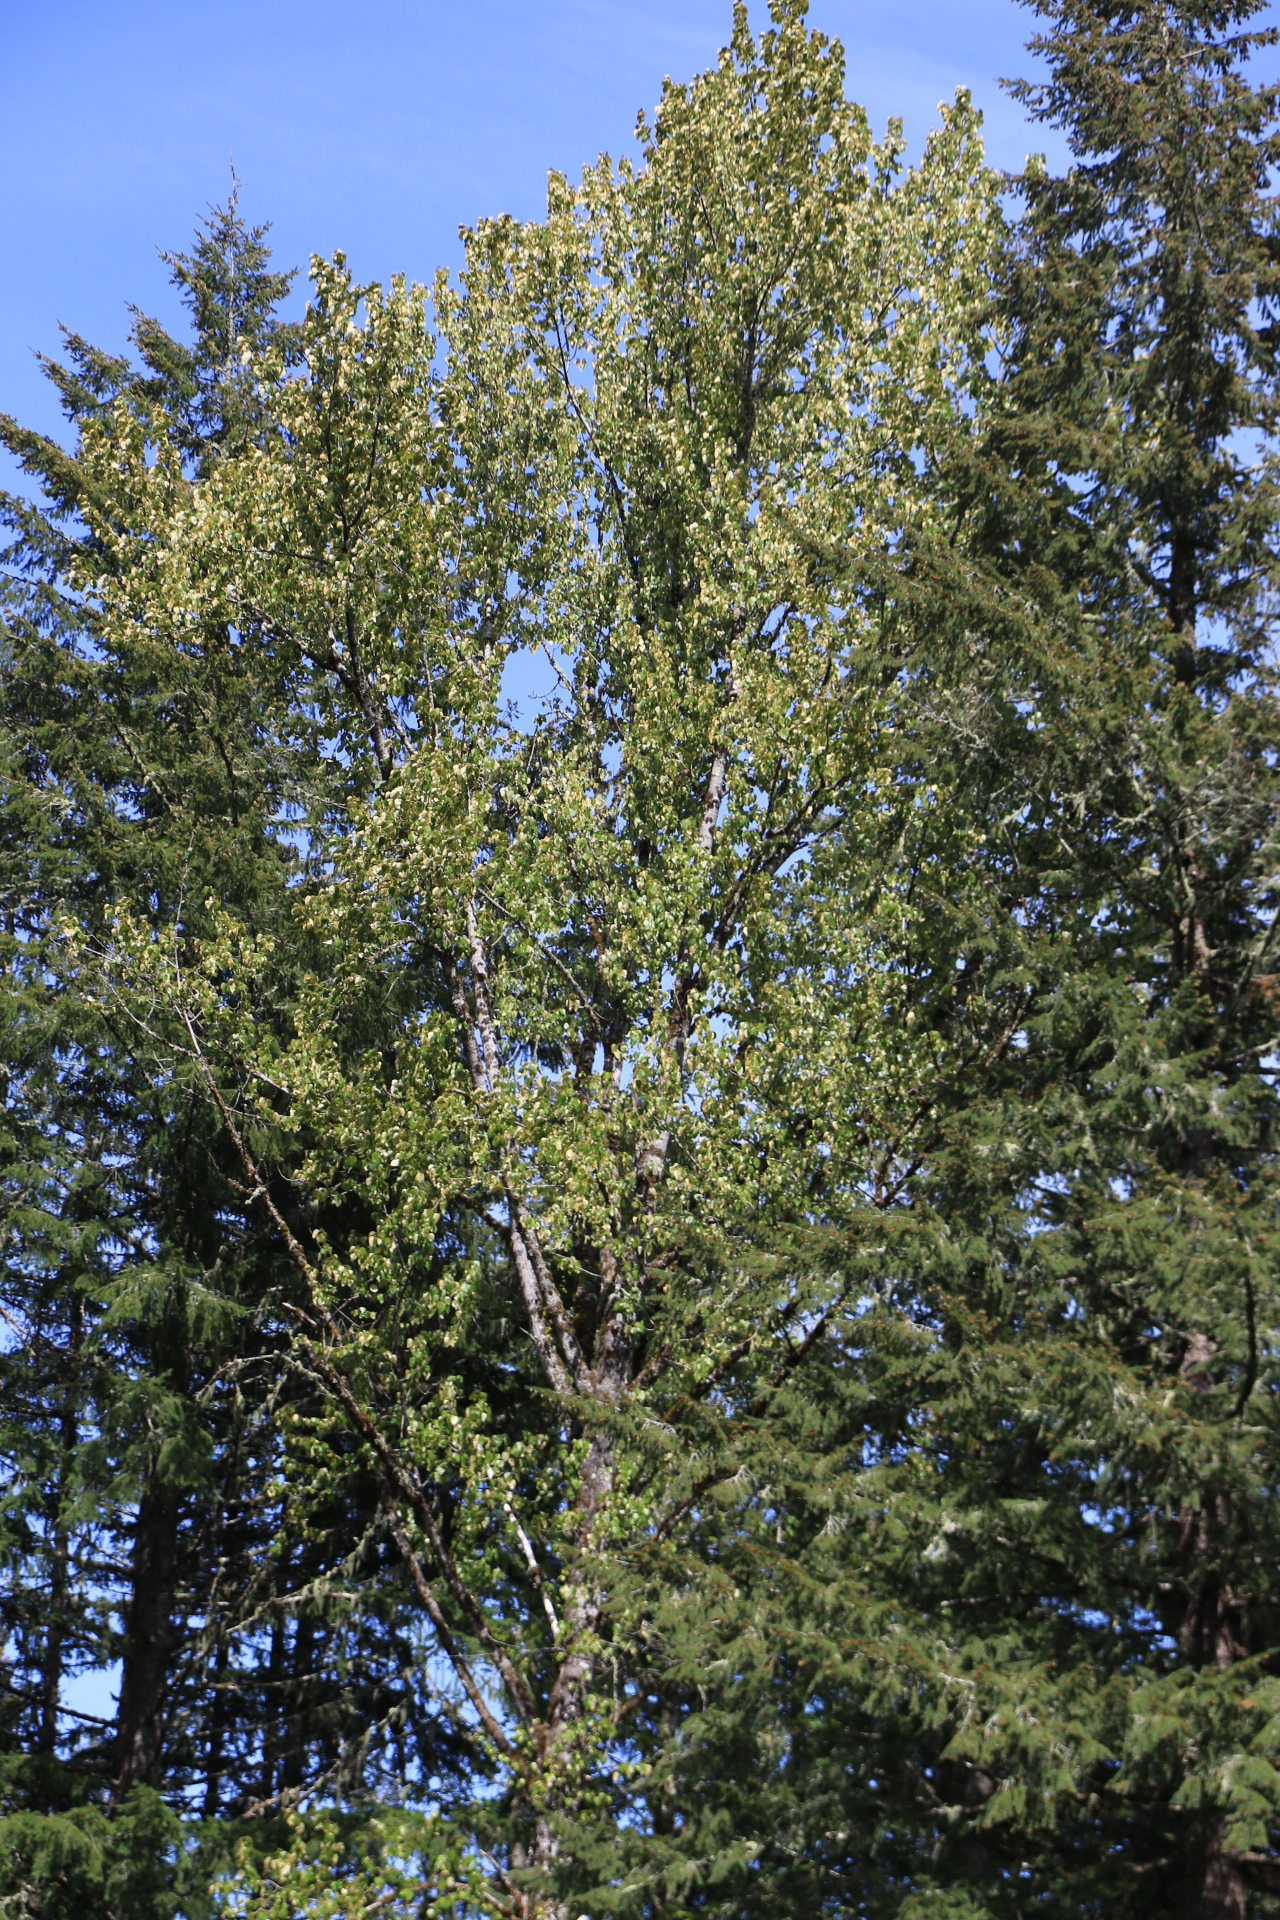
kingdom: Plantae
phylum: Tracheophyta
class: Magnoliopsida
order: Malpighiales
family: Salicaceae
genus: Populus
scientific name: Populus trichocarpa
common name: Black cottonwood
